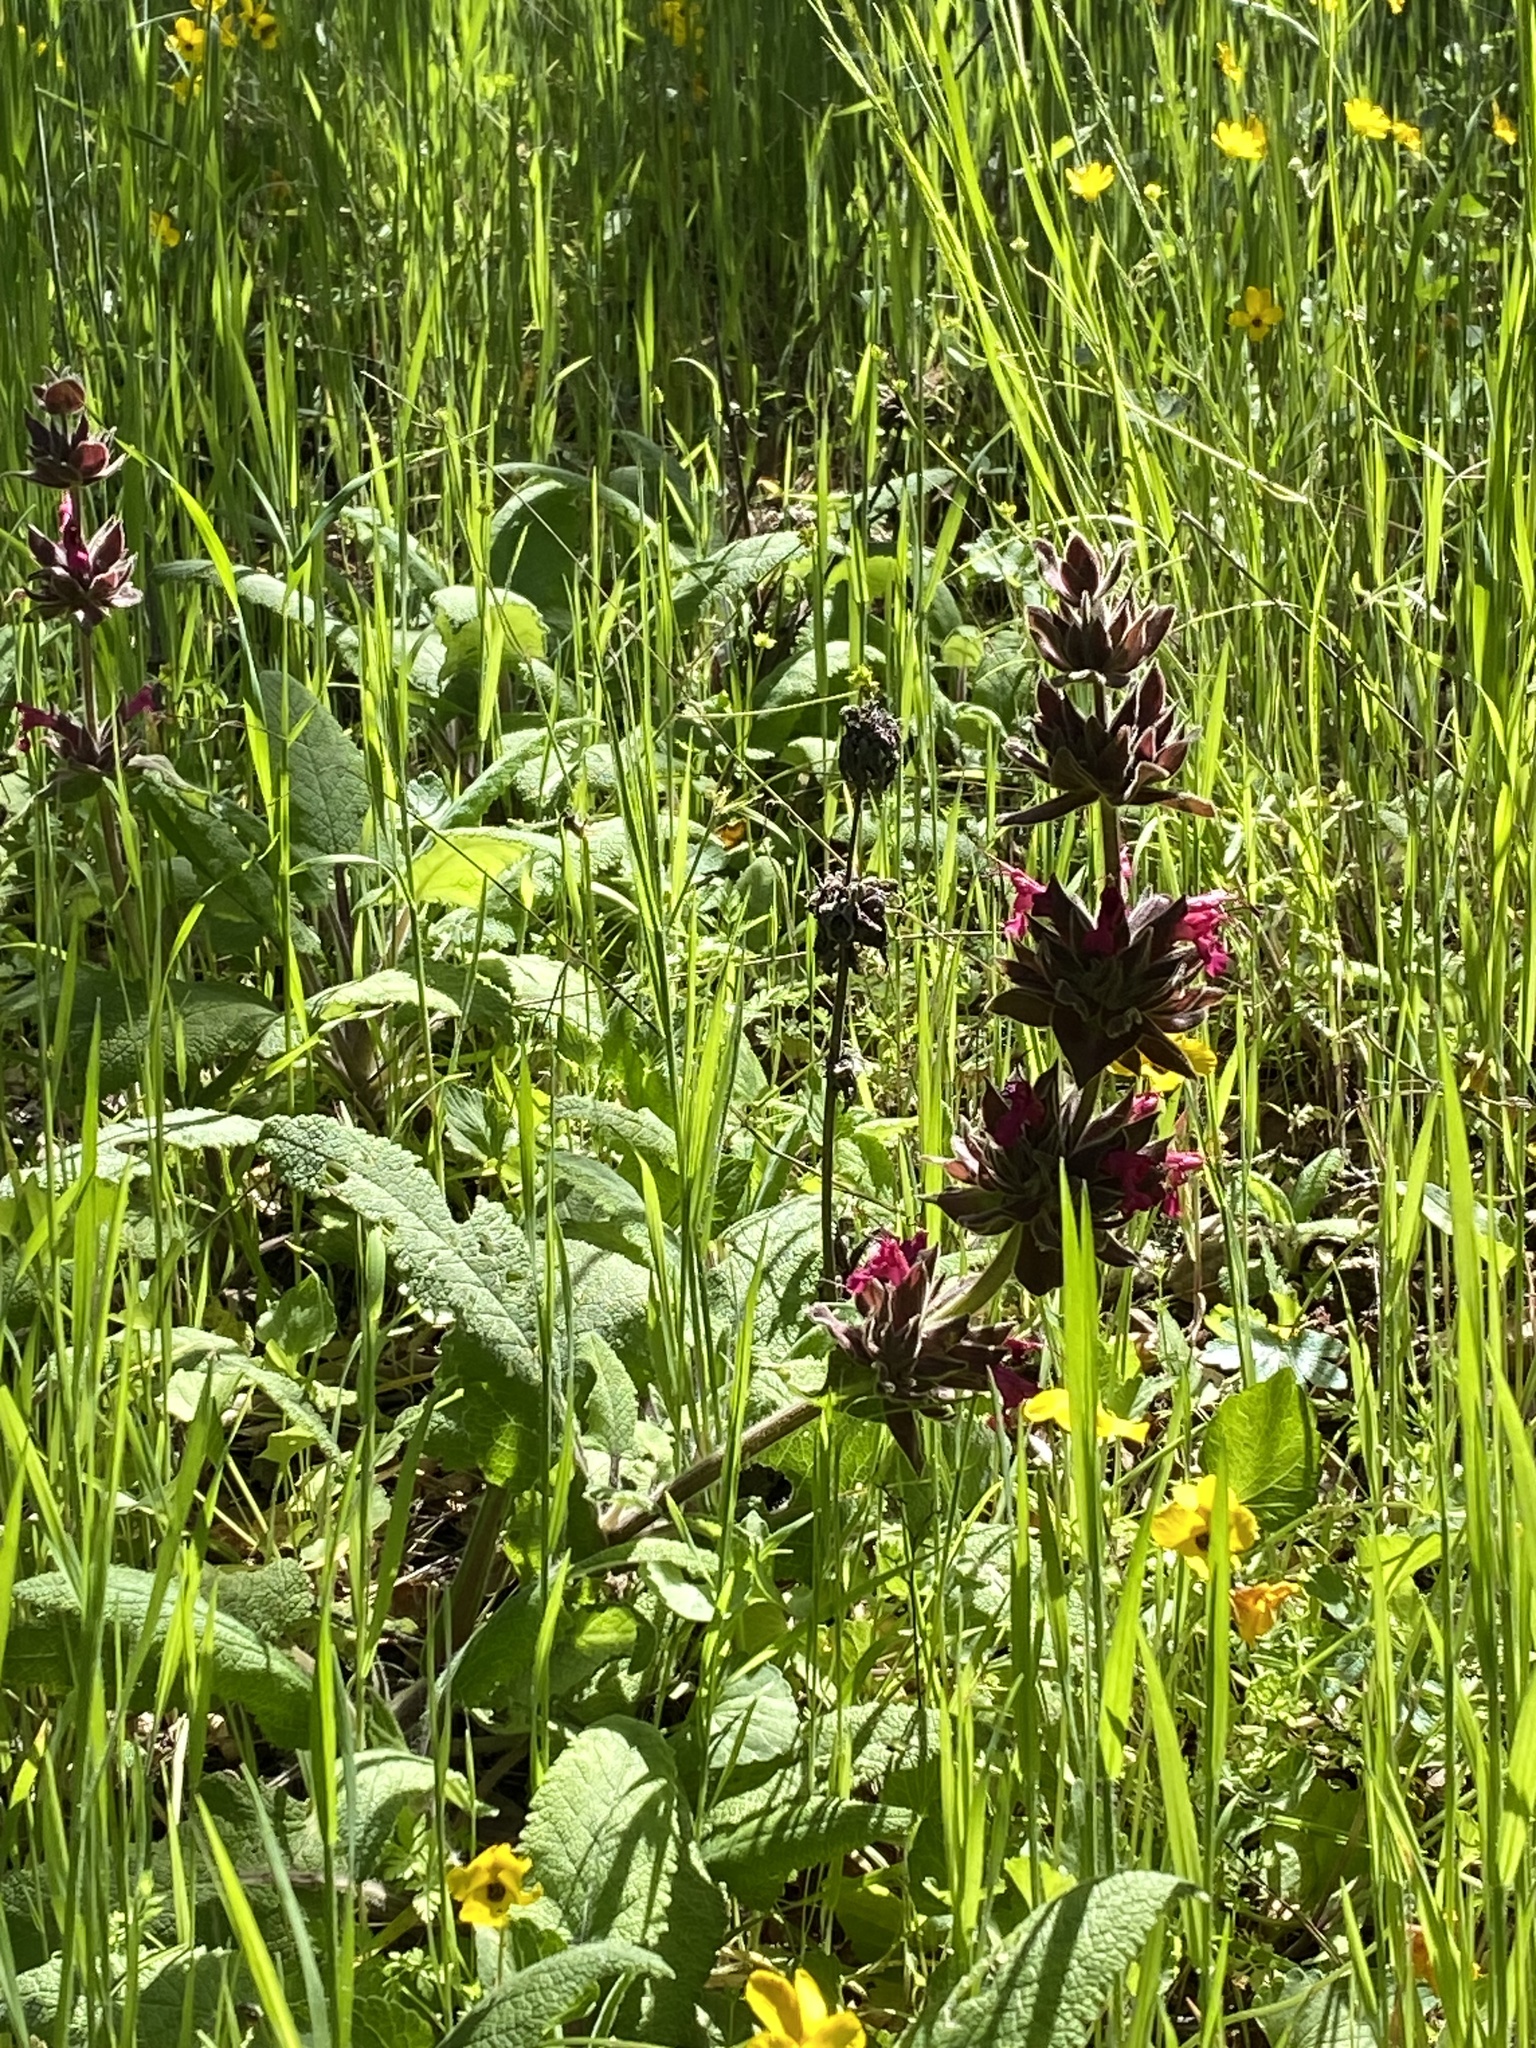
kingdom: Plantae
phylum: Tracheophyta
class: Magnoliopsida
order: Lamiales
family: Lamiaceae
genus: Salvia
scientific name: Salvia spathacea
